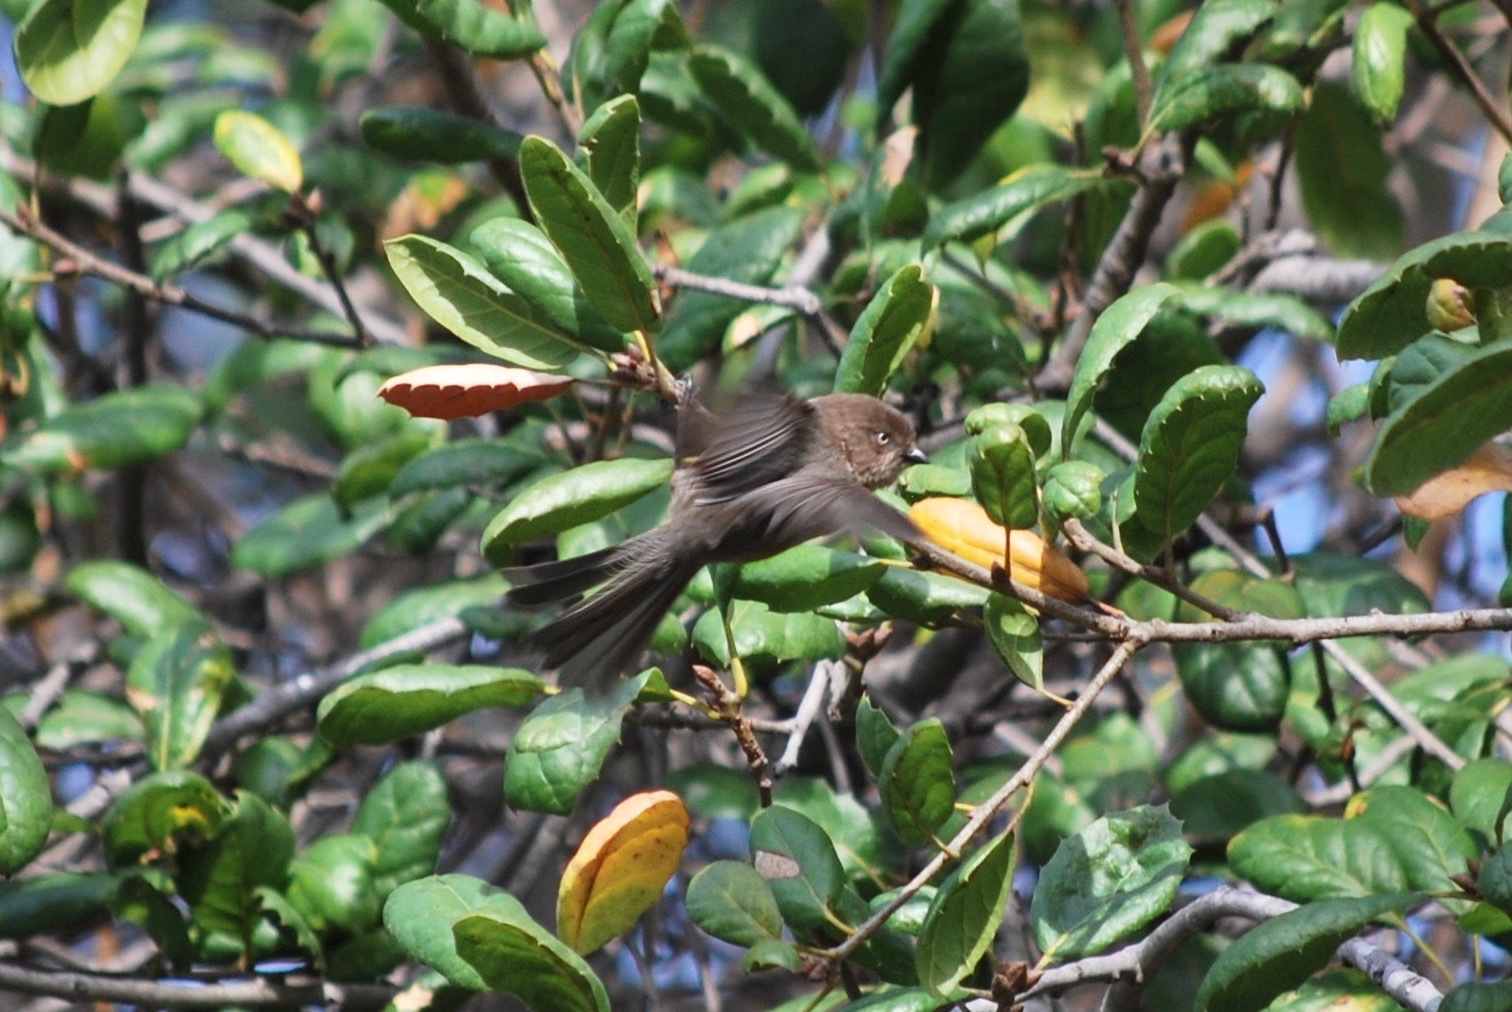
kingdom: Animalia
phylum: Chordata
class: Aves
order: Passeriformes
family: Aegithalidae
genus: Psaltriparus
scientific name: Psaltriparus minimus
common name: American bushtit
